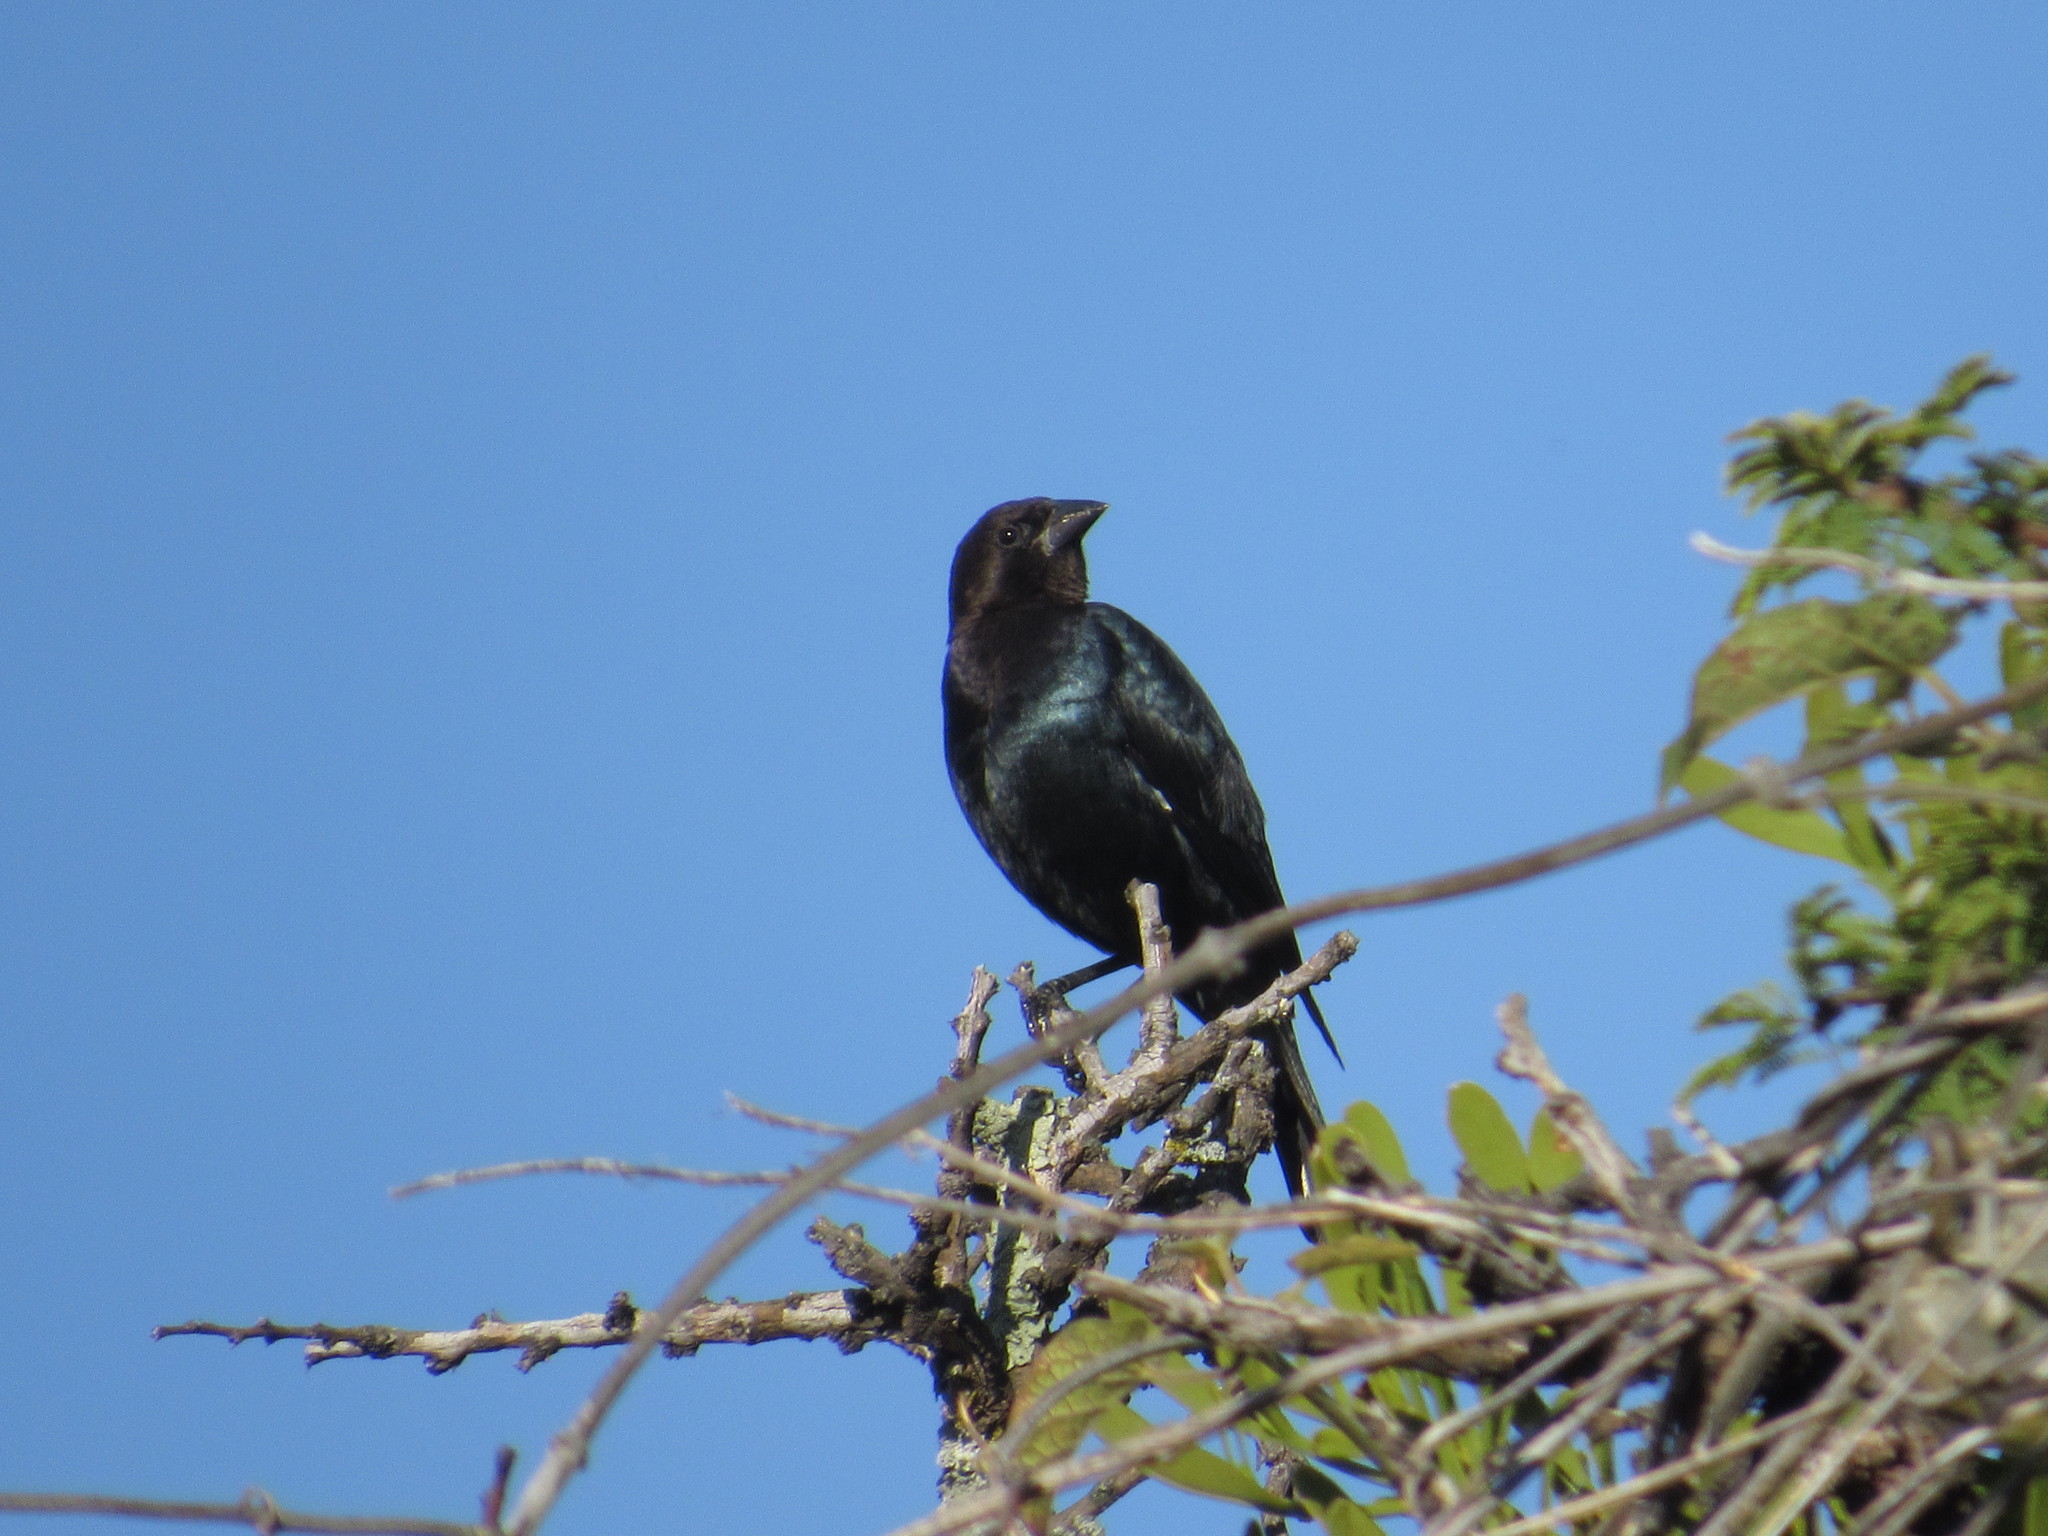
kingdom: Animalia
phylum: Chordata
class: Aves
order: Passeriformes
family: Icteridae
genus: Molothrus
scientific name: Molothrus ater
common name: Brown-headed cowbird
